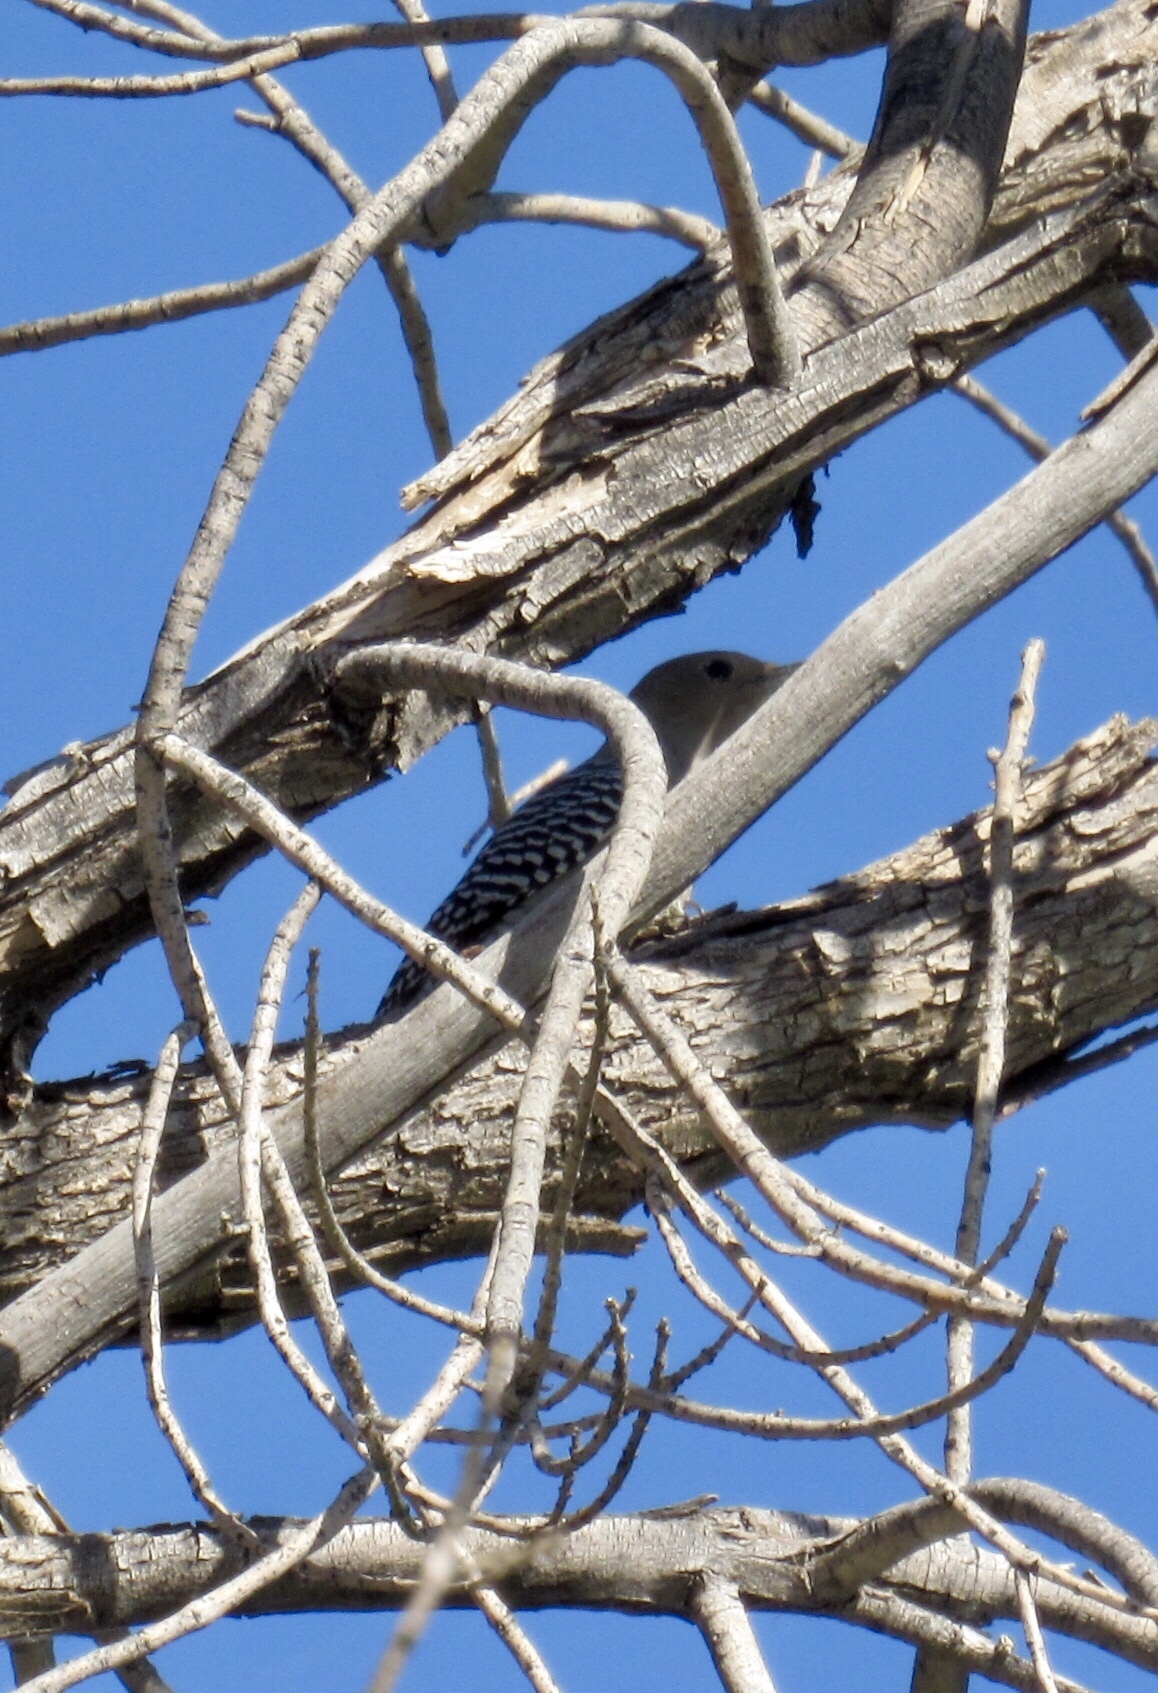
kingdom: Animalia
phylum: Chordata
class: Aves
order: Piciformes
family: Picidae
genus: Melanerpes
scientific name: Melanerpes uropygialis
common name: Gila woodpecker
